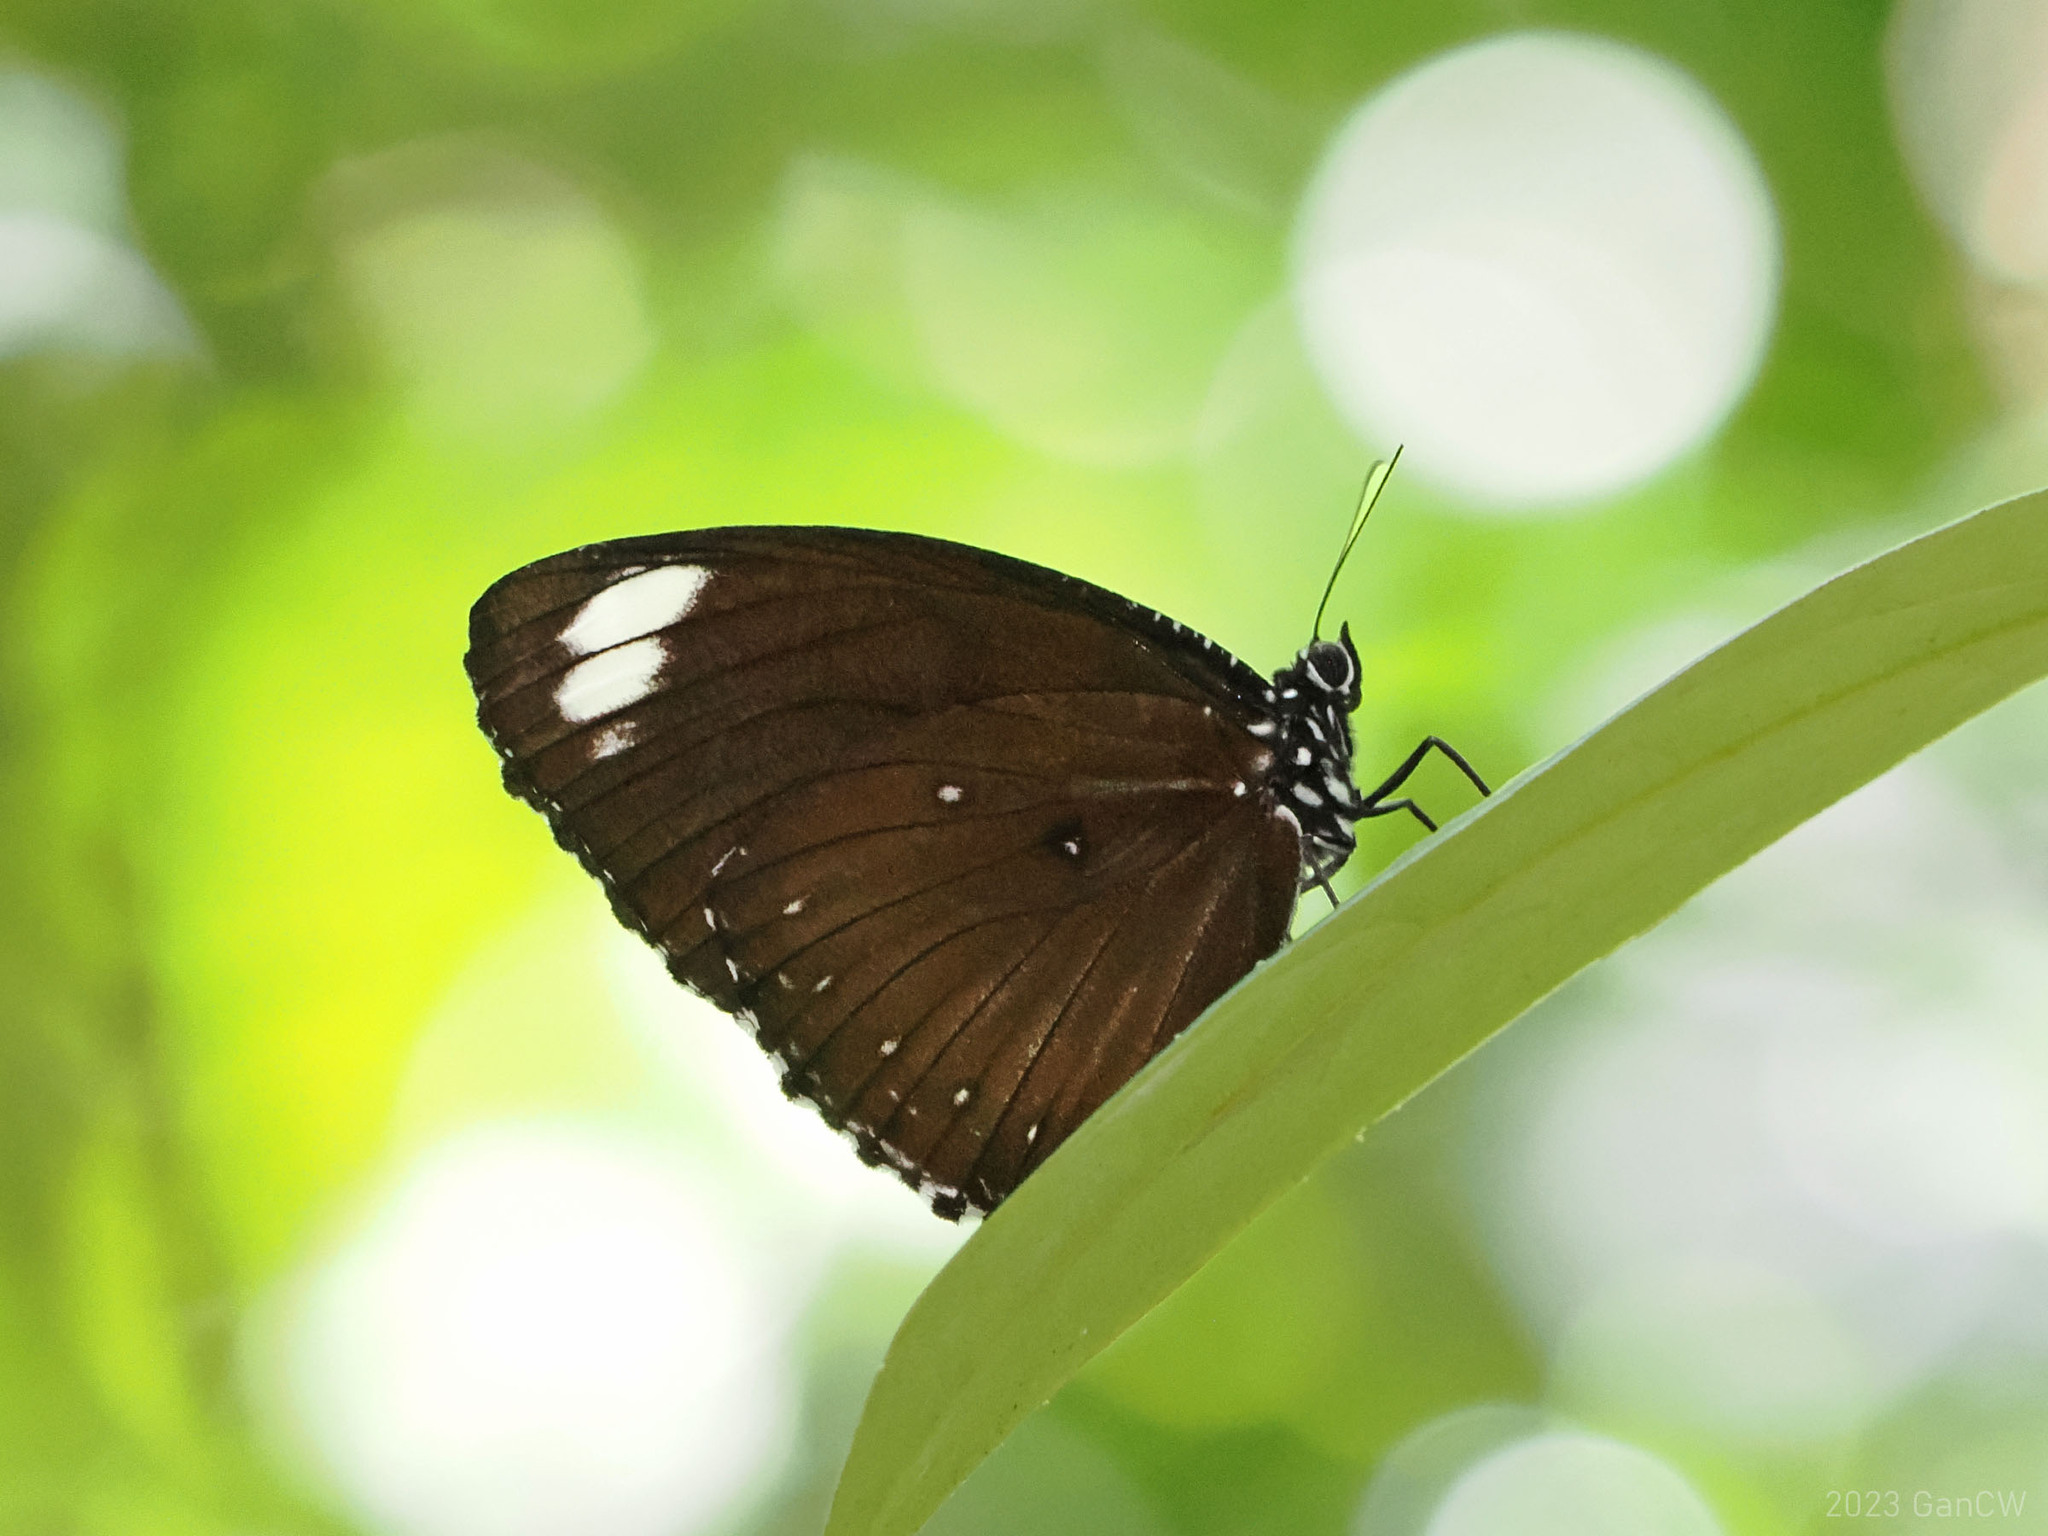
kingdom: Animalia
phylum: Arthropoda
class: Insecta
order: Lepidoptera
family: Nymphalidae
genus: Elymnias
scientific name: Elymnias melias
